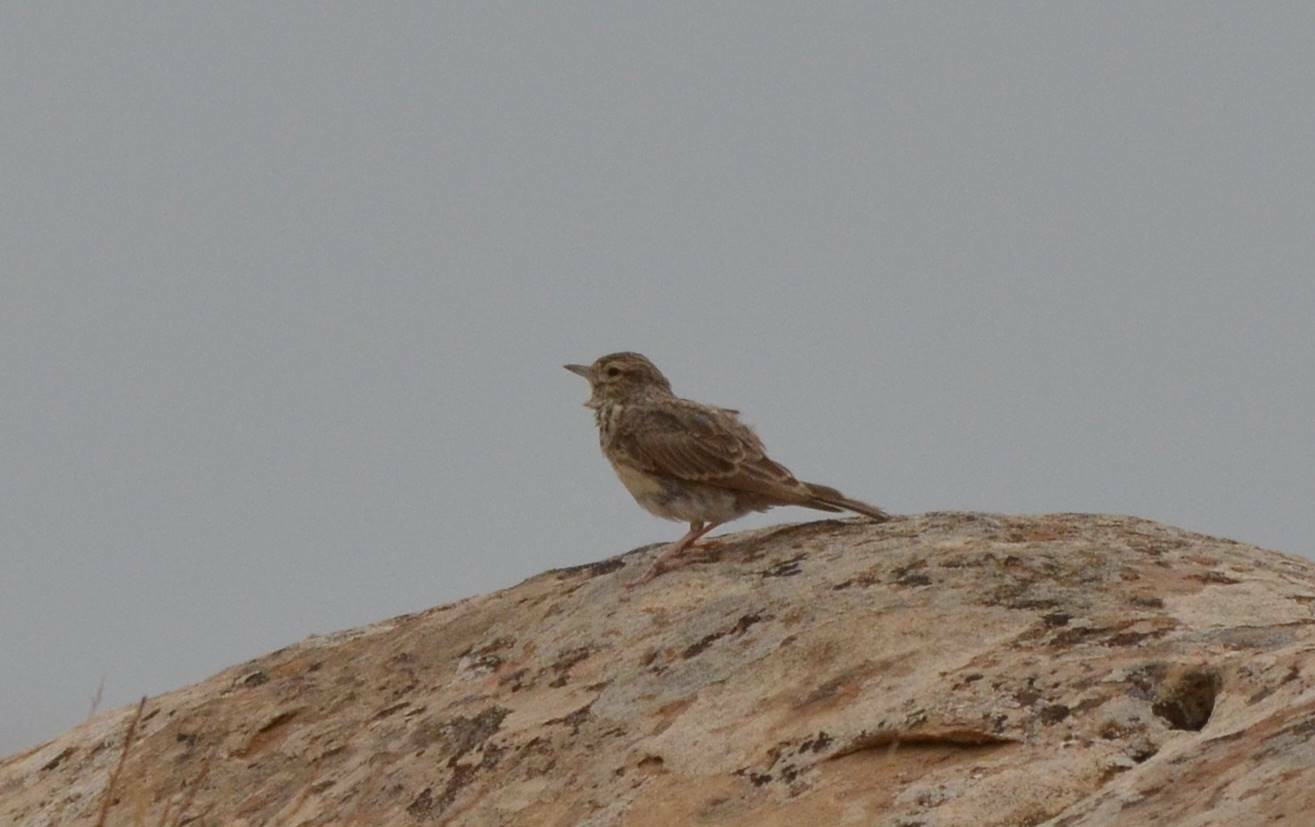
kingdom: Animalia
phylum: Chordata
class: Aves
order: Passeriformes
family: Alaudidae
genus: Galerida
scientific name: Galerida cristata
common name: Crested lark
